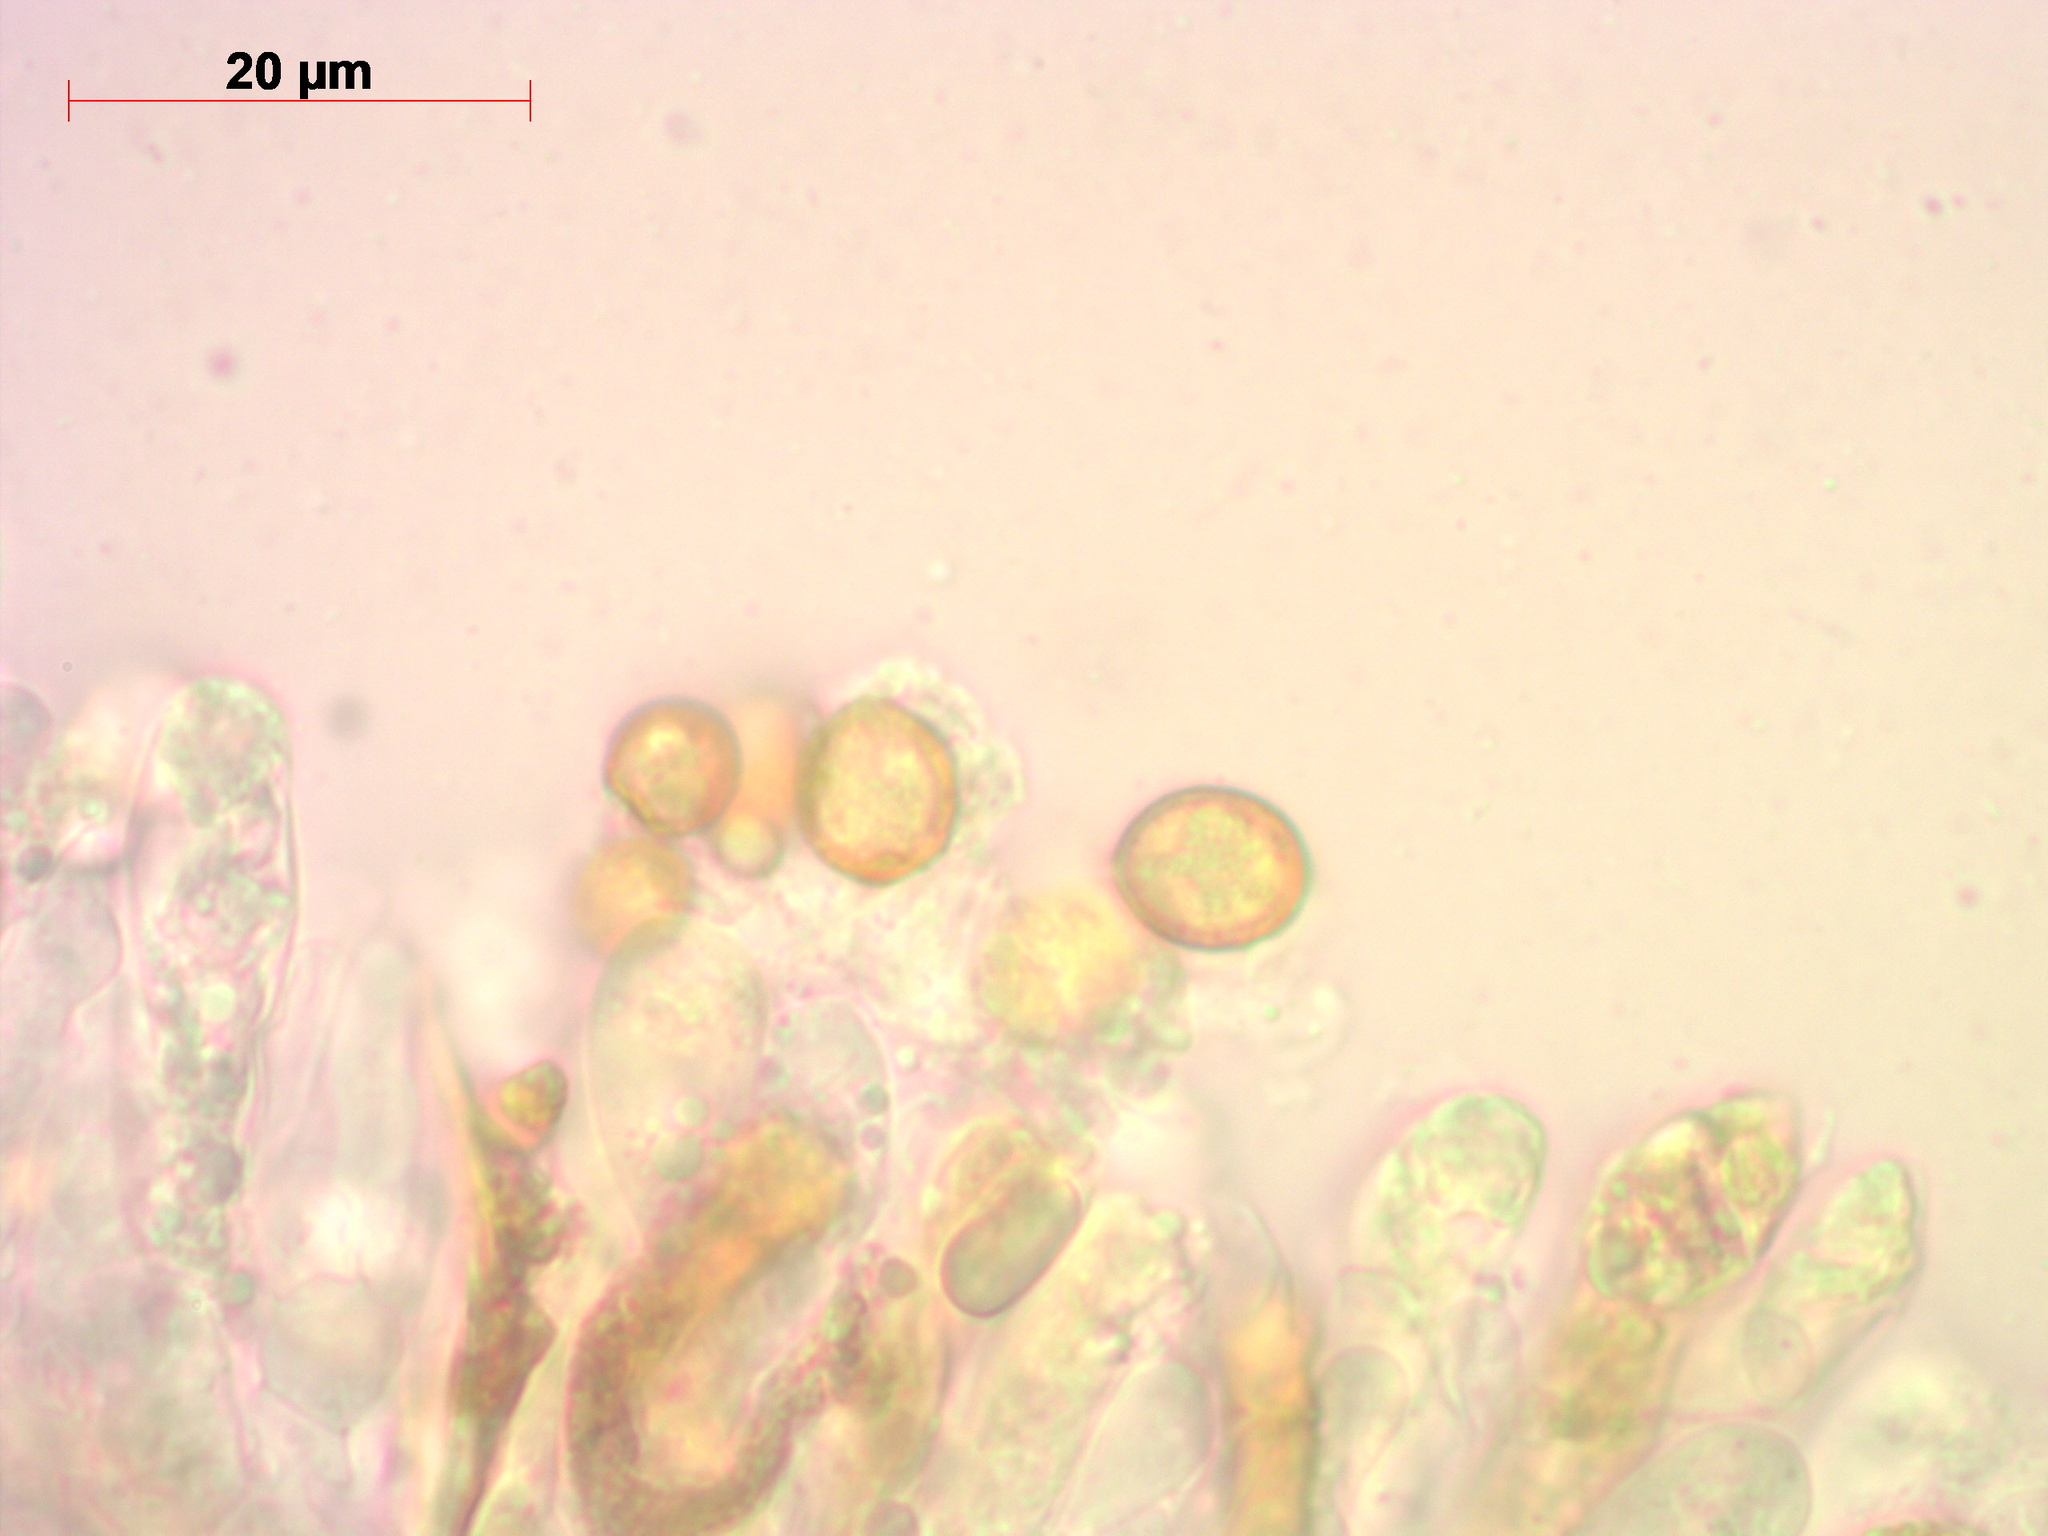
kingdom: Fungi
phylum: Basidiomycota
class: Agaricomycetes
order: Agaricales
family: Cortinariaceae
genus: Cortinarius
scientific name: Cortinarius paragaudis
